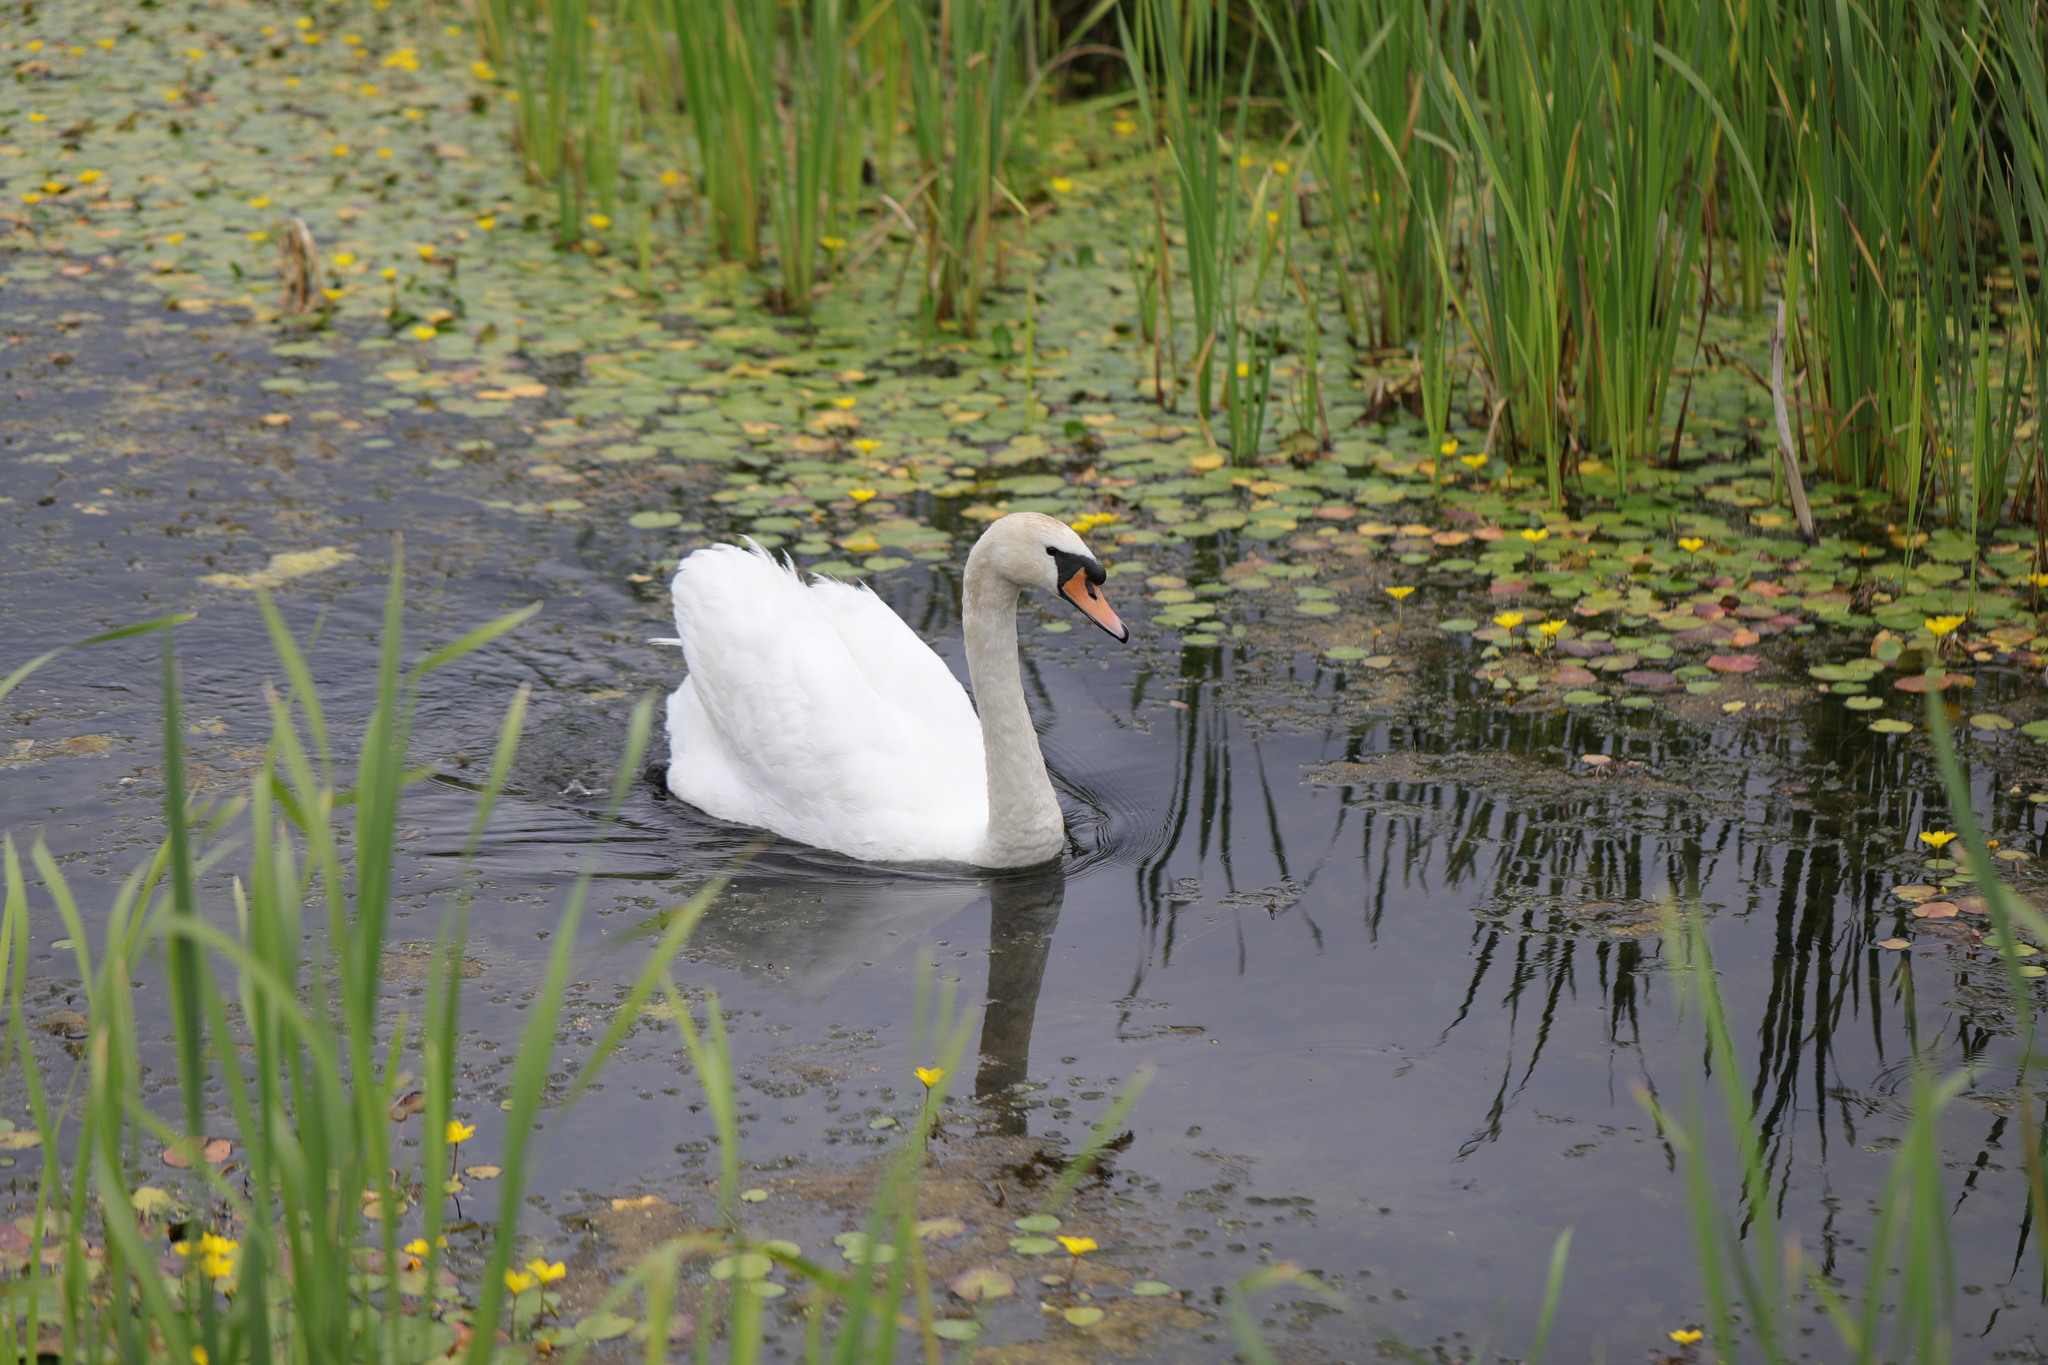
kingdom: Animalia
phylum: Chordata
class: Aves
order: Anseriformes
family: Anatidae
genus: Cygnus
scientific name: Cygnus olor
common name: Mute swan
